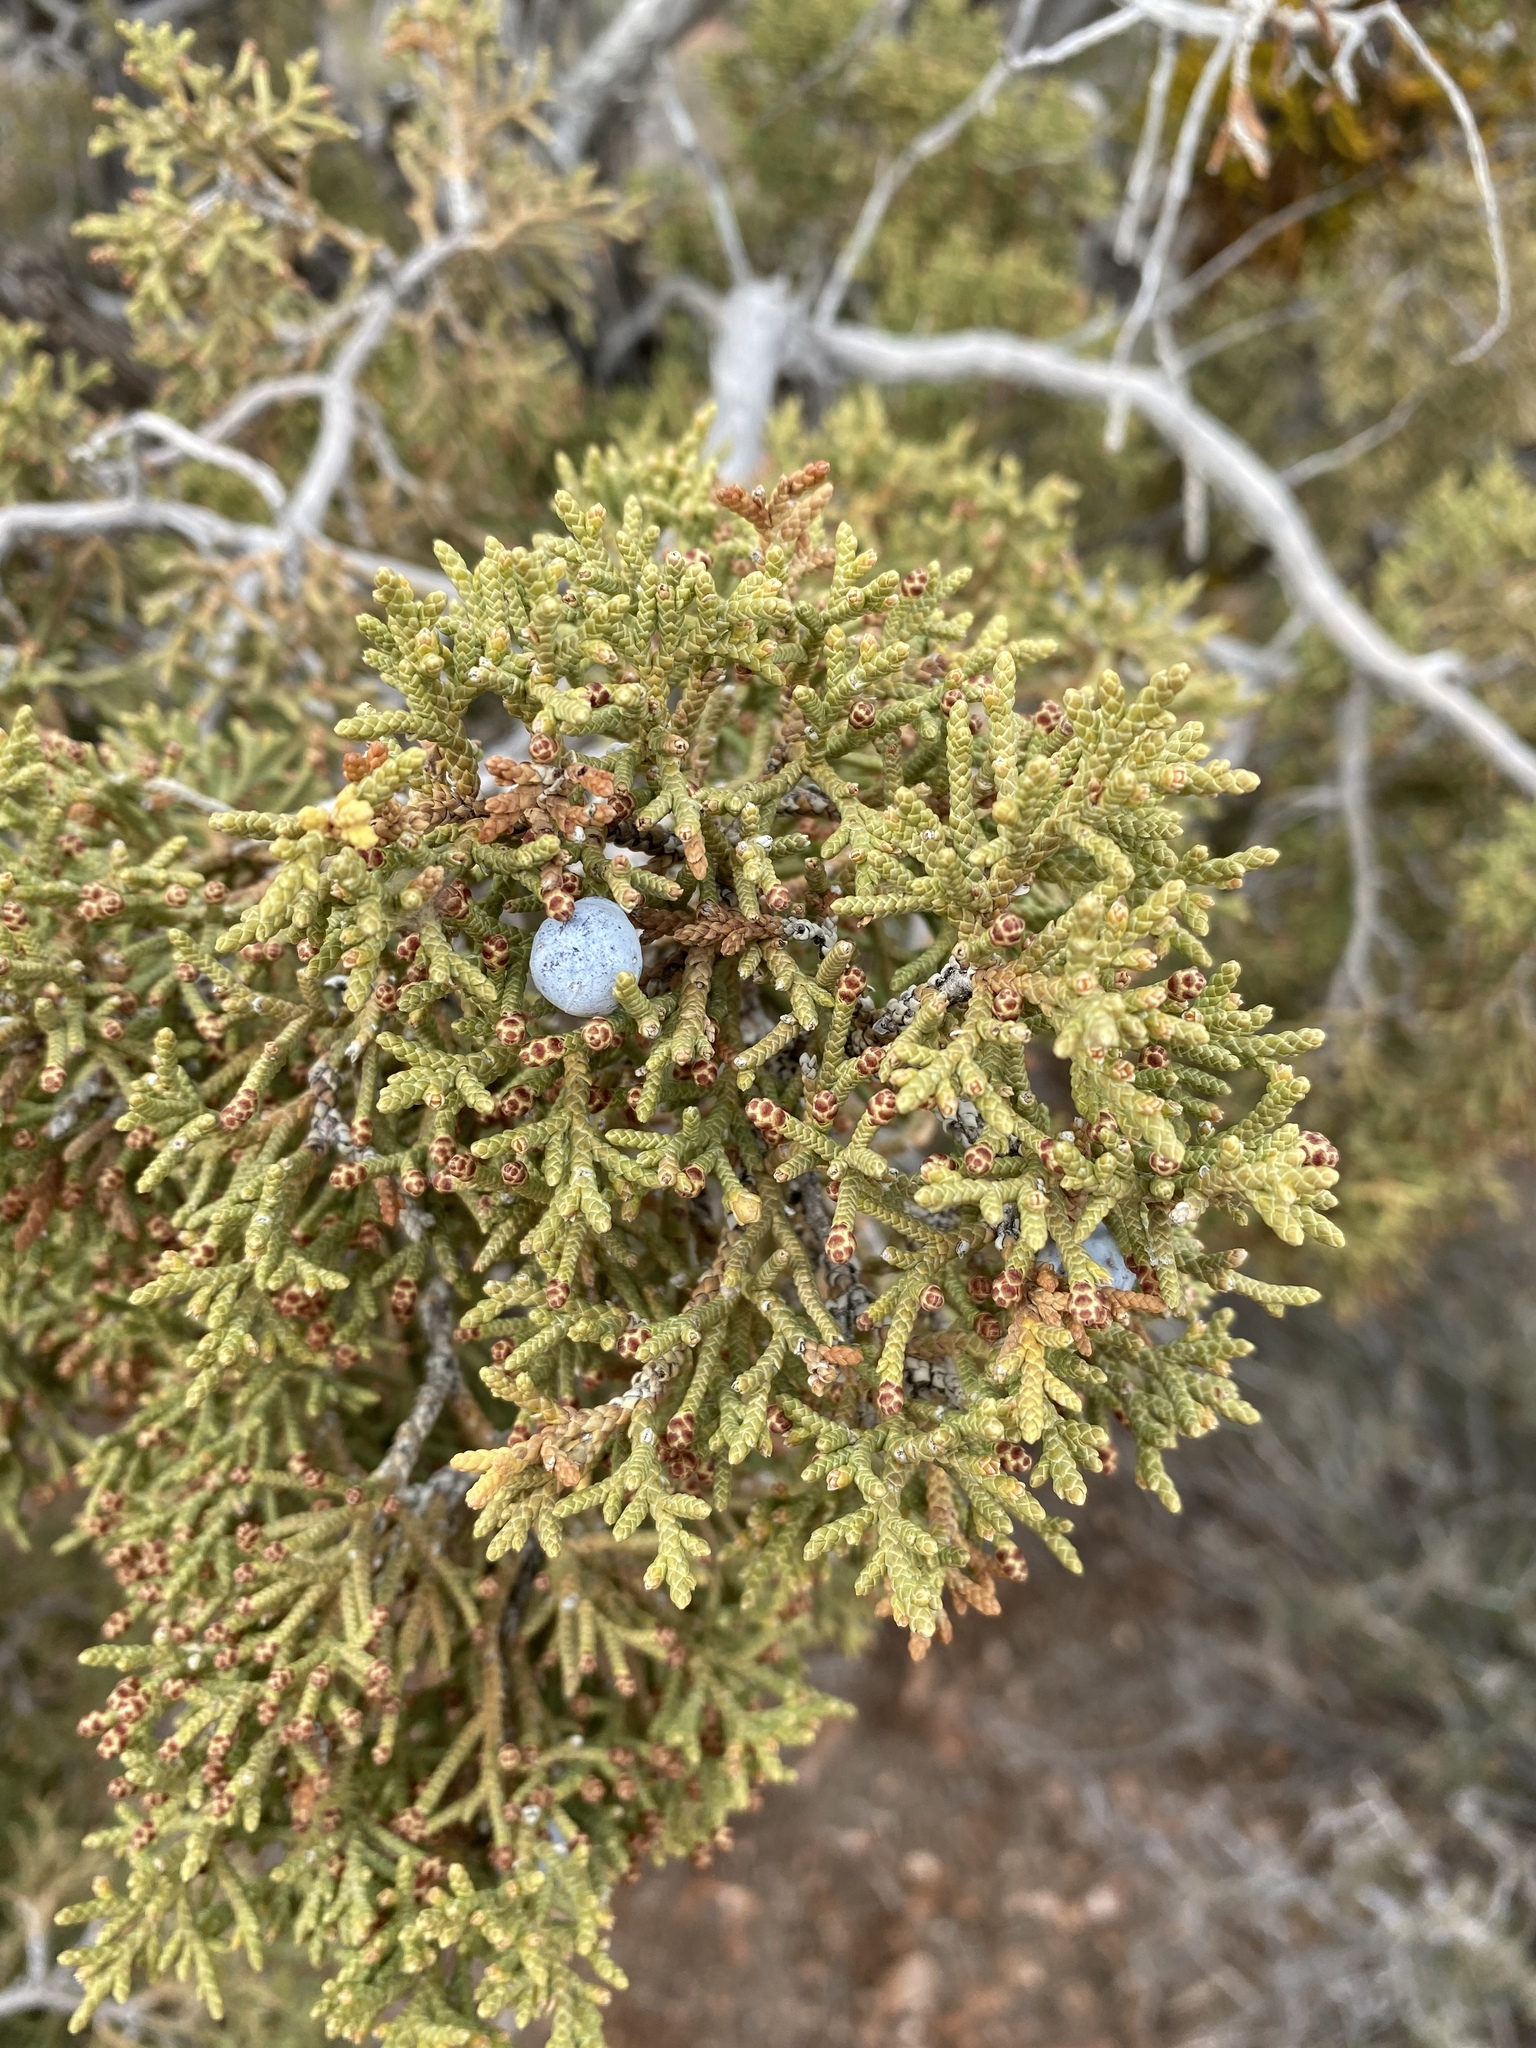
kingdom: Plantae
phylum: Tracheophyta
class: Pinopsida
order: Pinales
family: Cupressaceae
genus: Juniperus
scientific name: Juniperus osteosperma
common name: Utah juniper
